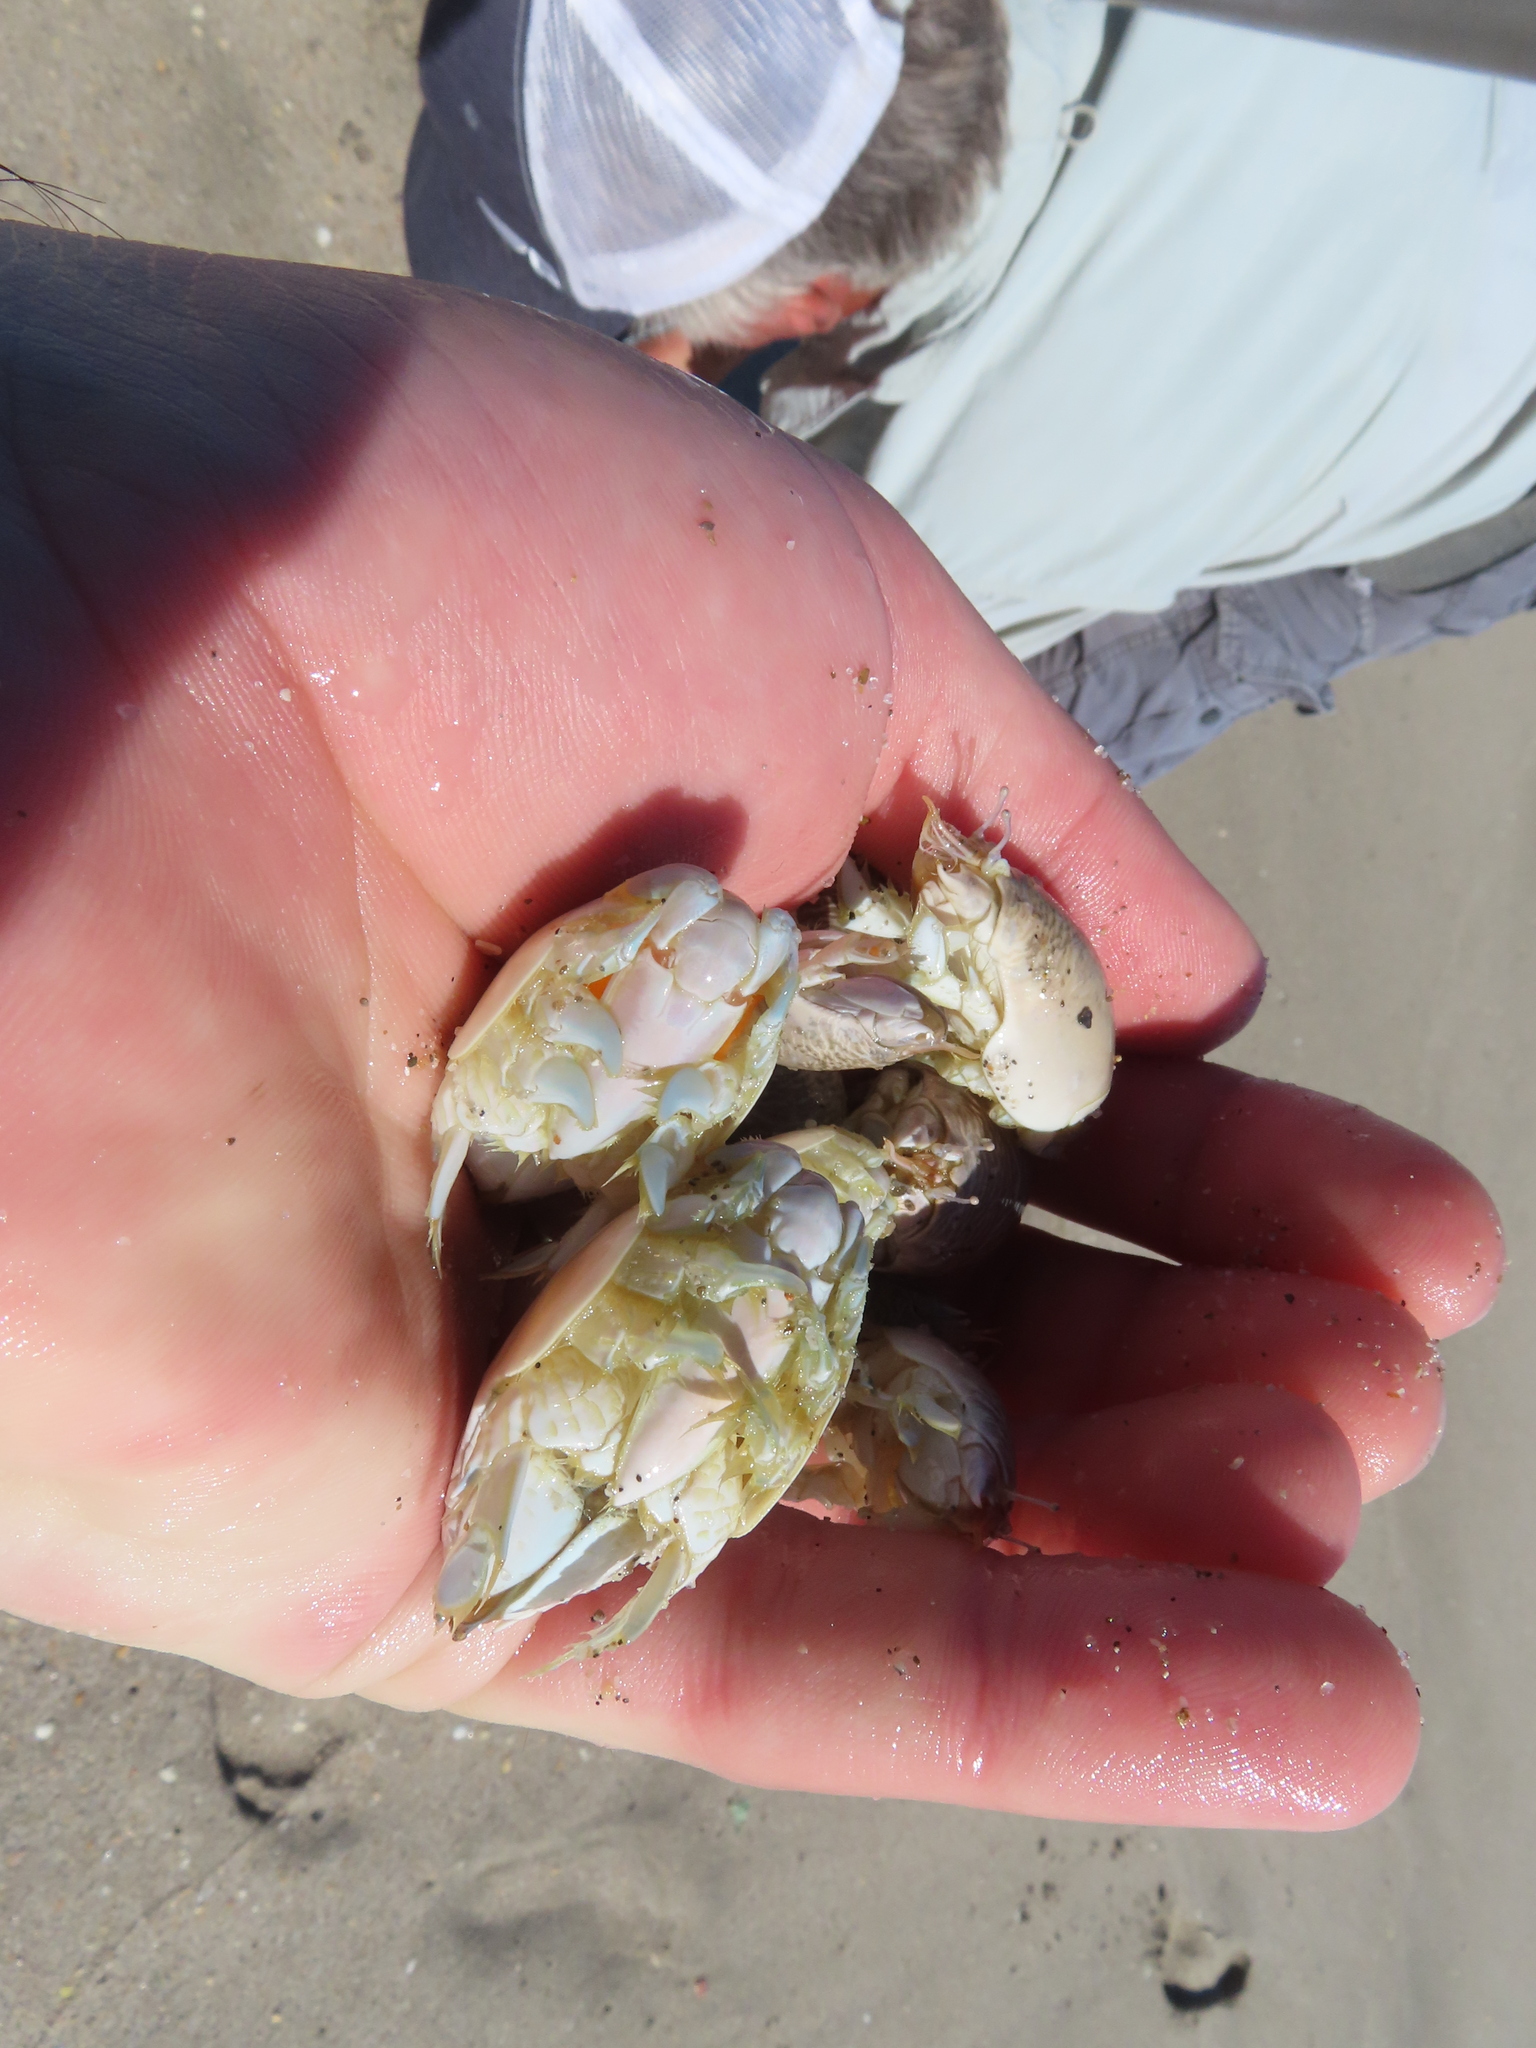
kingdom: Animalia
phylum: Arthropoda
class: Malacostraca
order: Decapoda
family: Hippidae
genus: Emerita
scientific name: Emerita talpoida
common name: Atlantic sand crab
